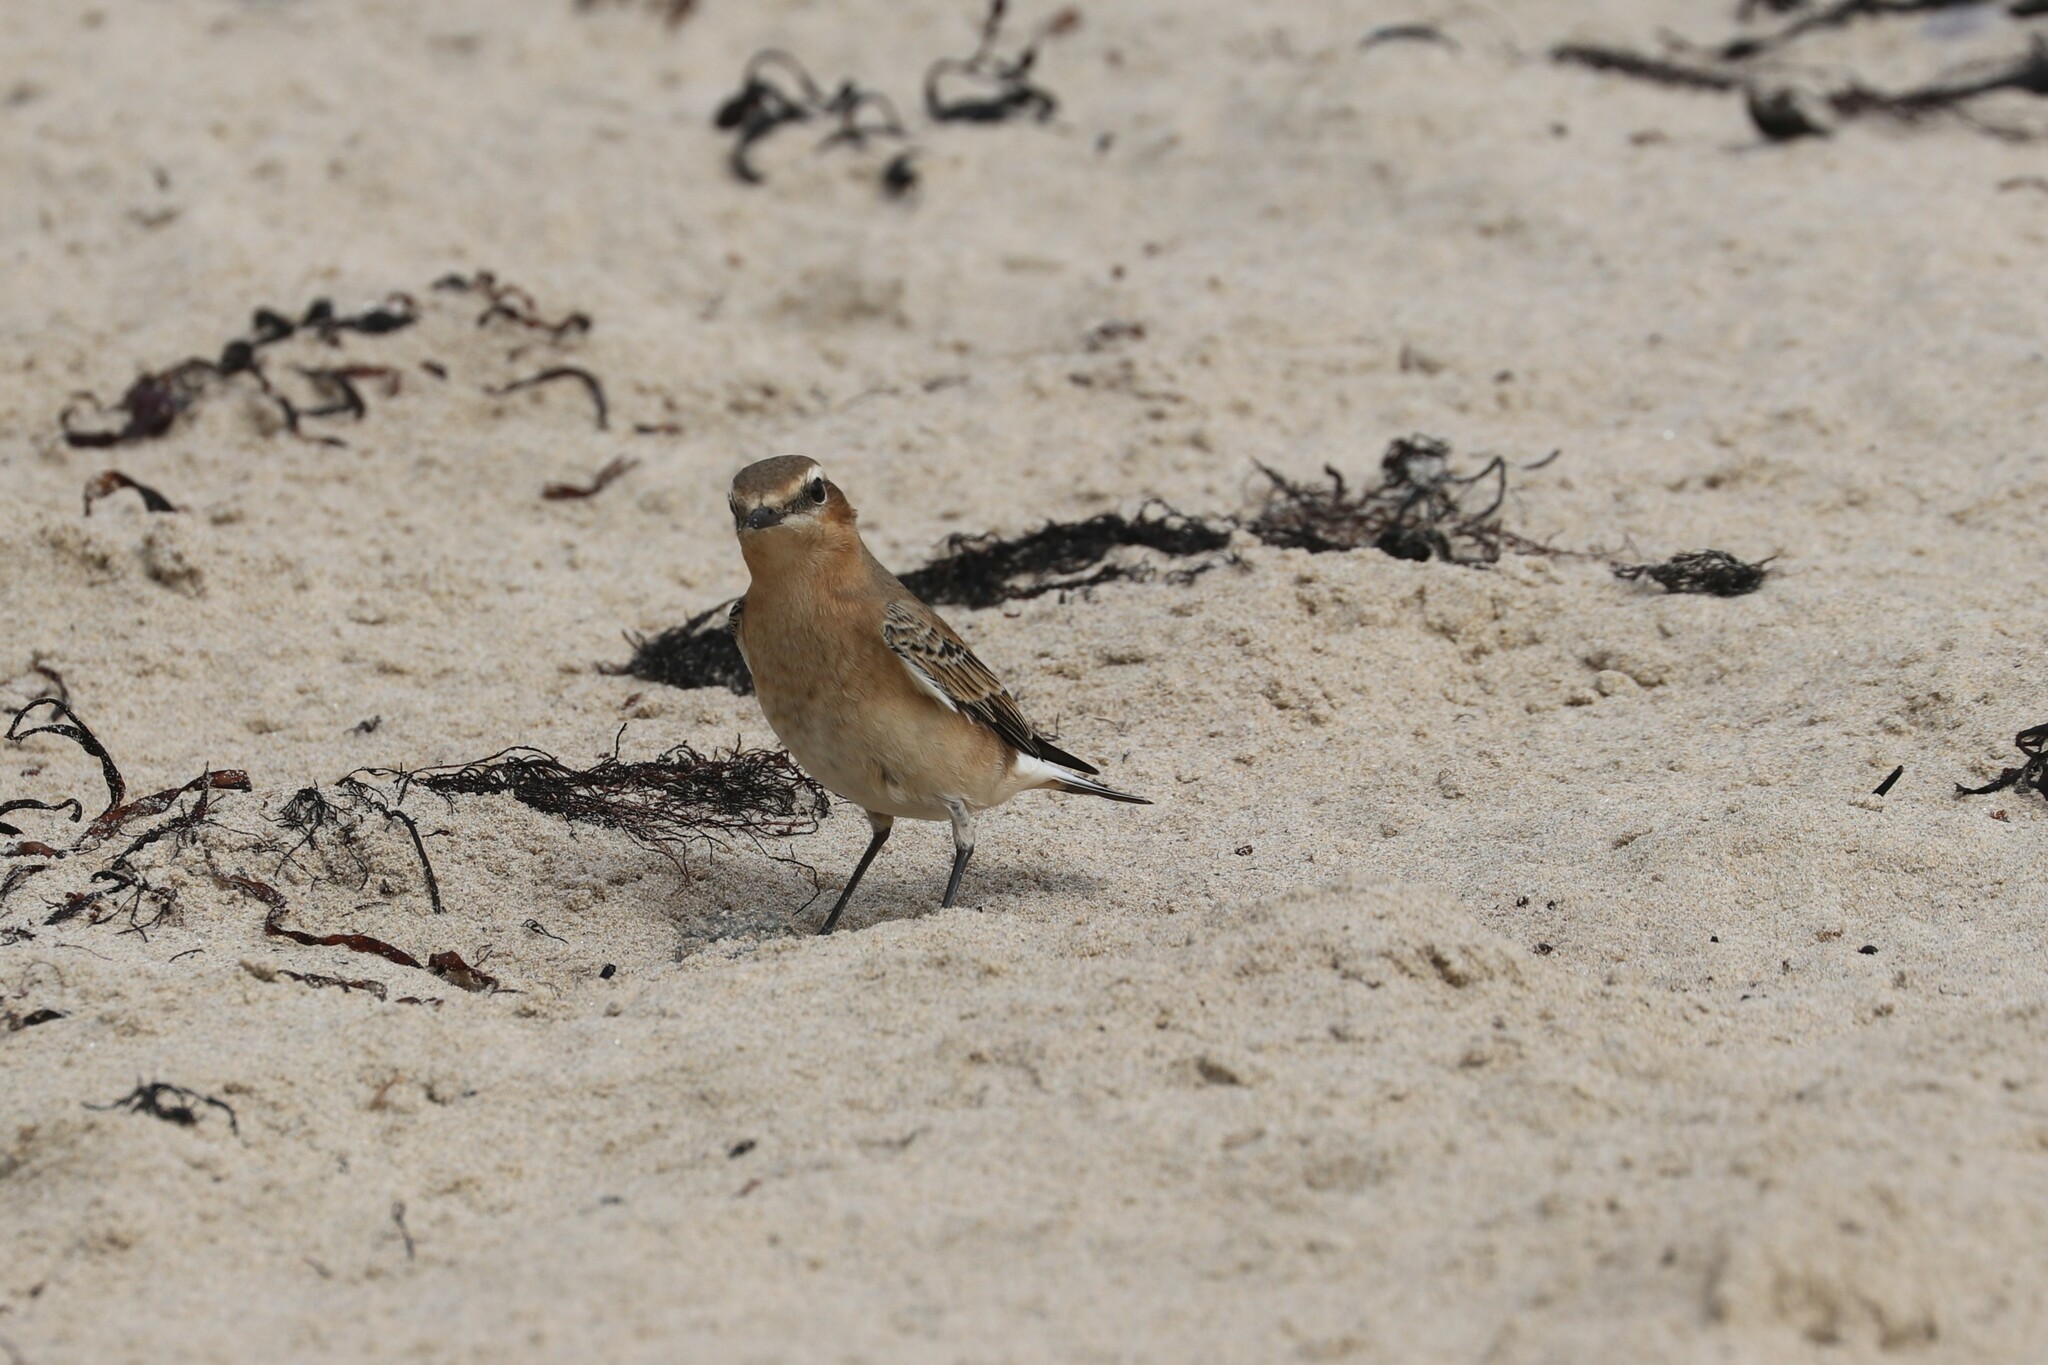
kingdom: Animalia
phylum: Chordata
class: Aves
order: Passeriformes
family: Muscicapidae
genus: Oenanthe
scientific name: Oenanthe oenanthe
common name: Northern wheatear
